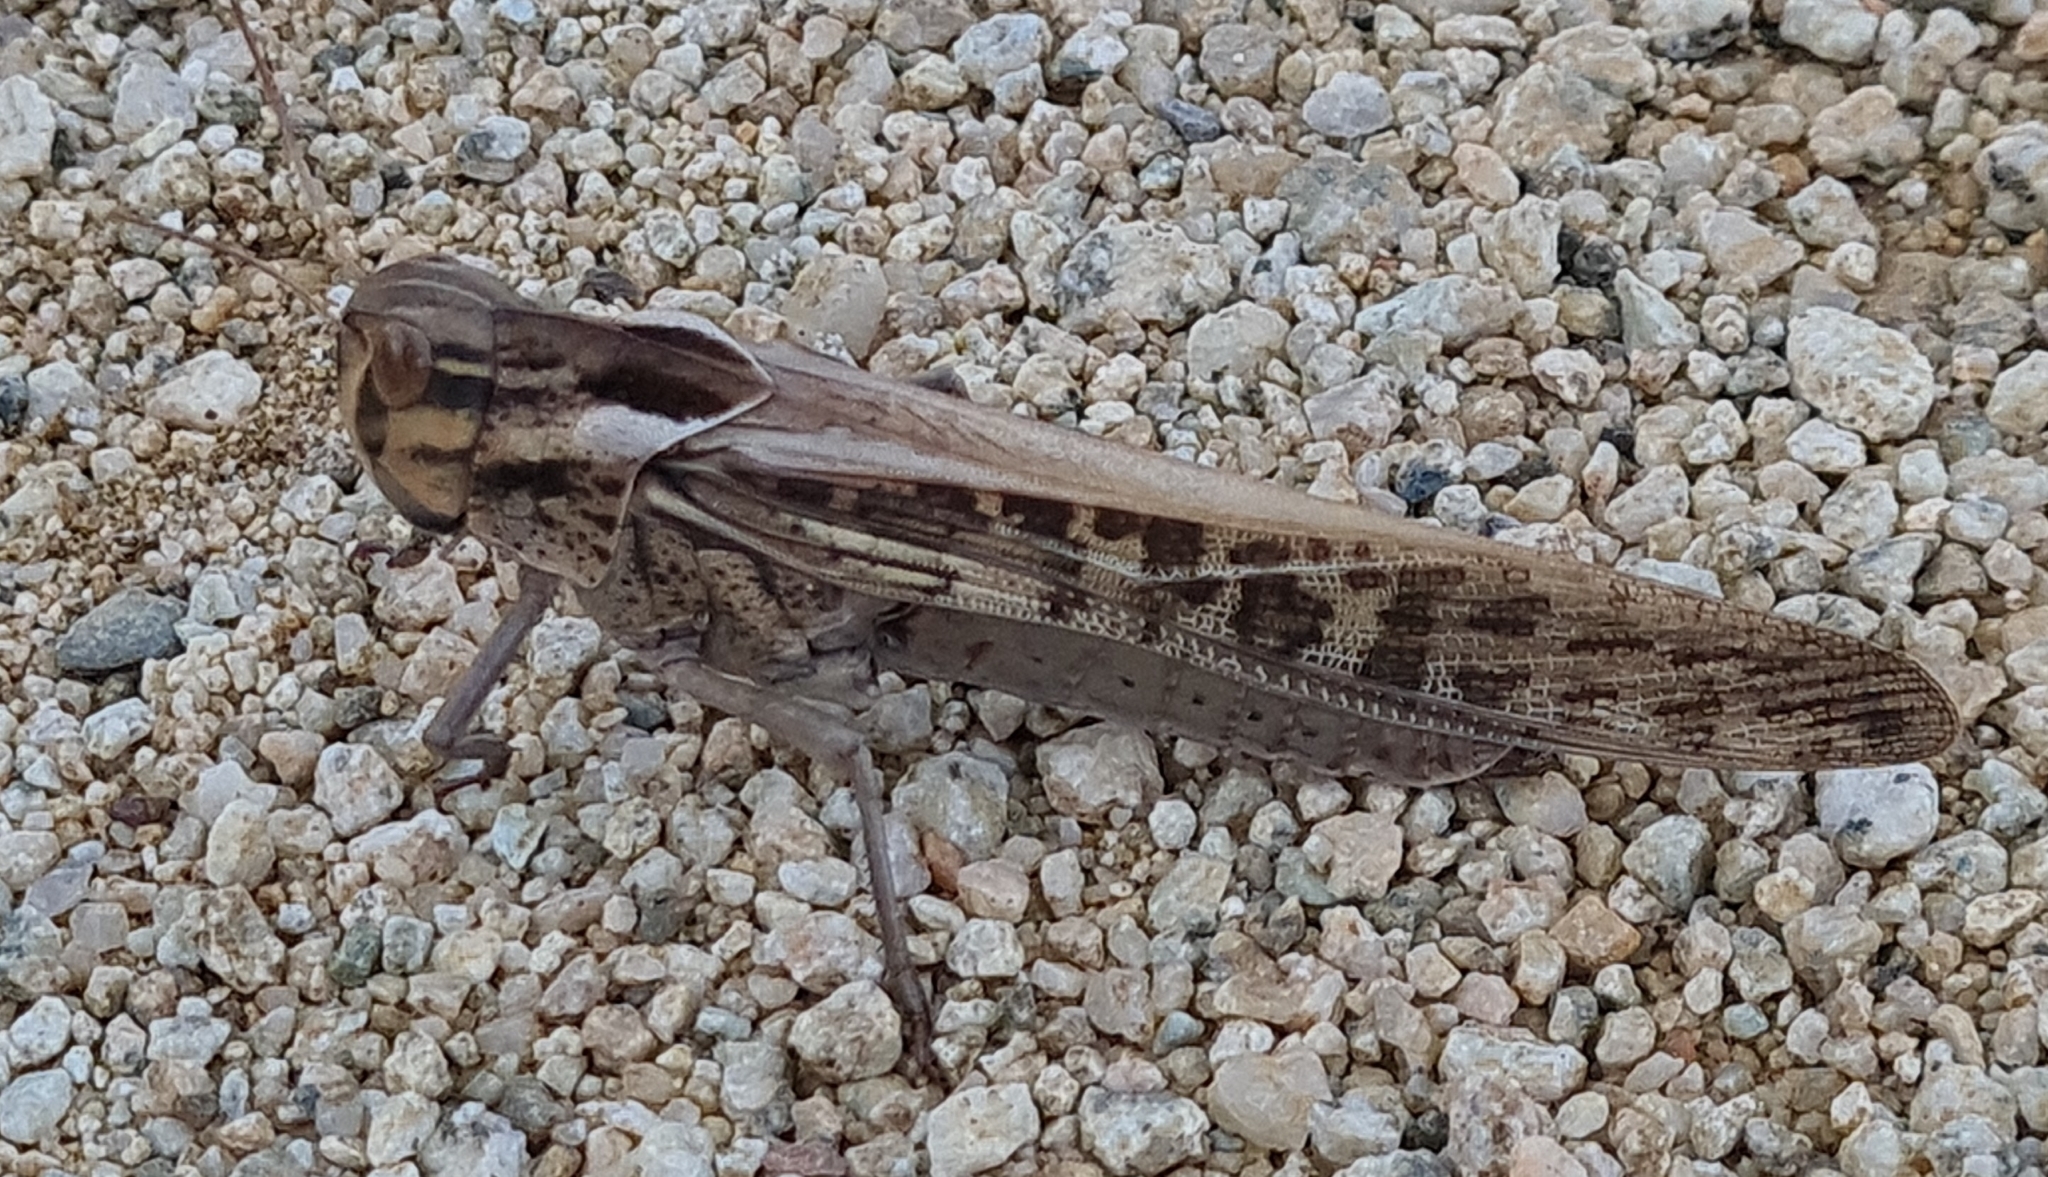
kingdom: Animalia
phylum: Arthropoda
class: Insecta
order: Orthoptera
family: Acrididae
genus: Locusta
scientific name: Locusta migratoria
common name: Migratory locust
